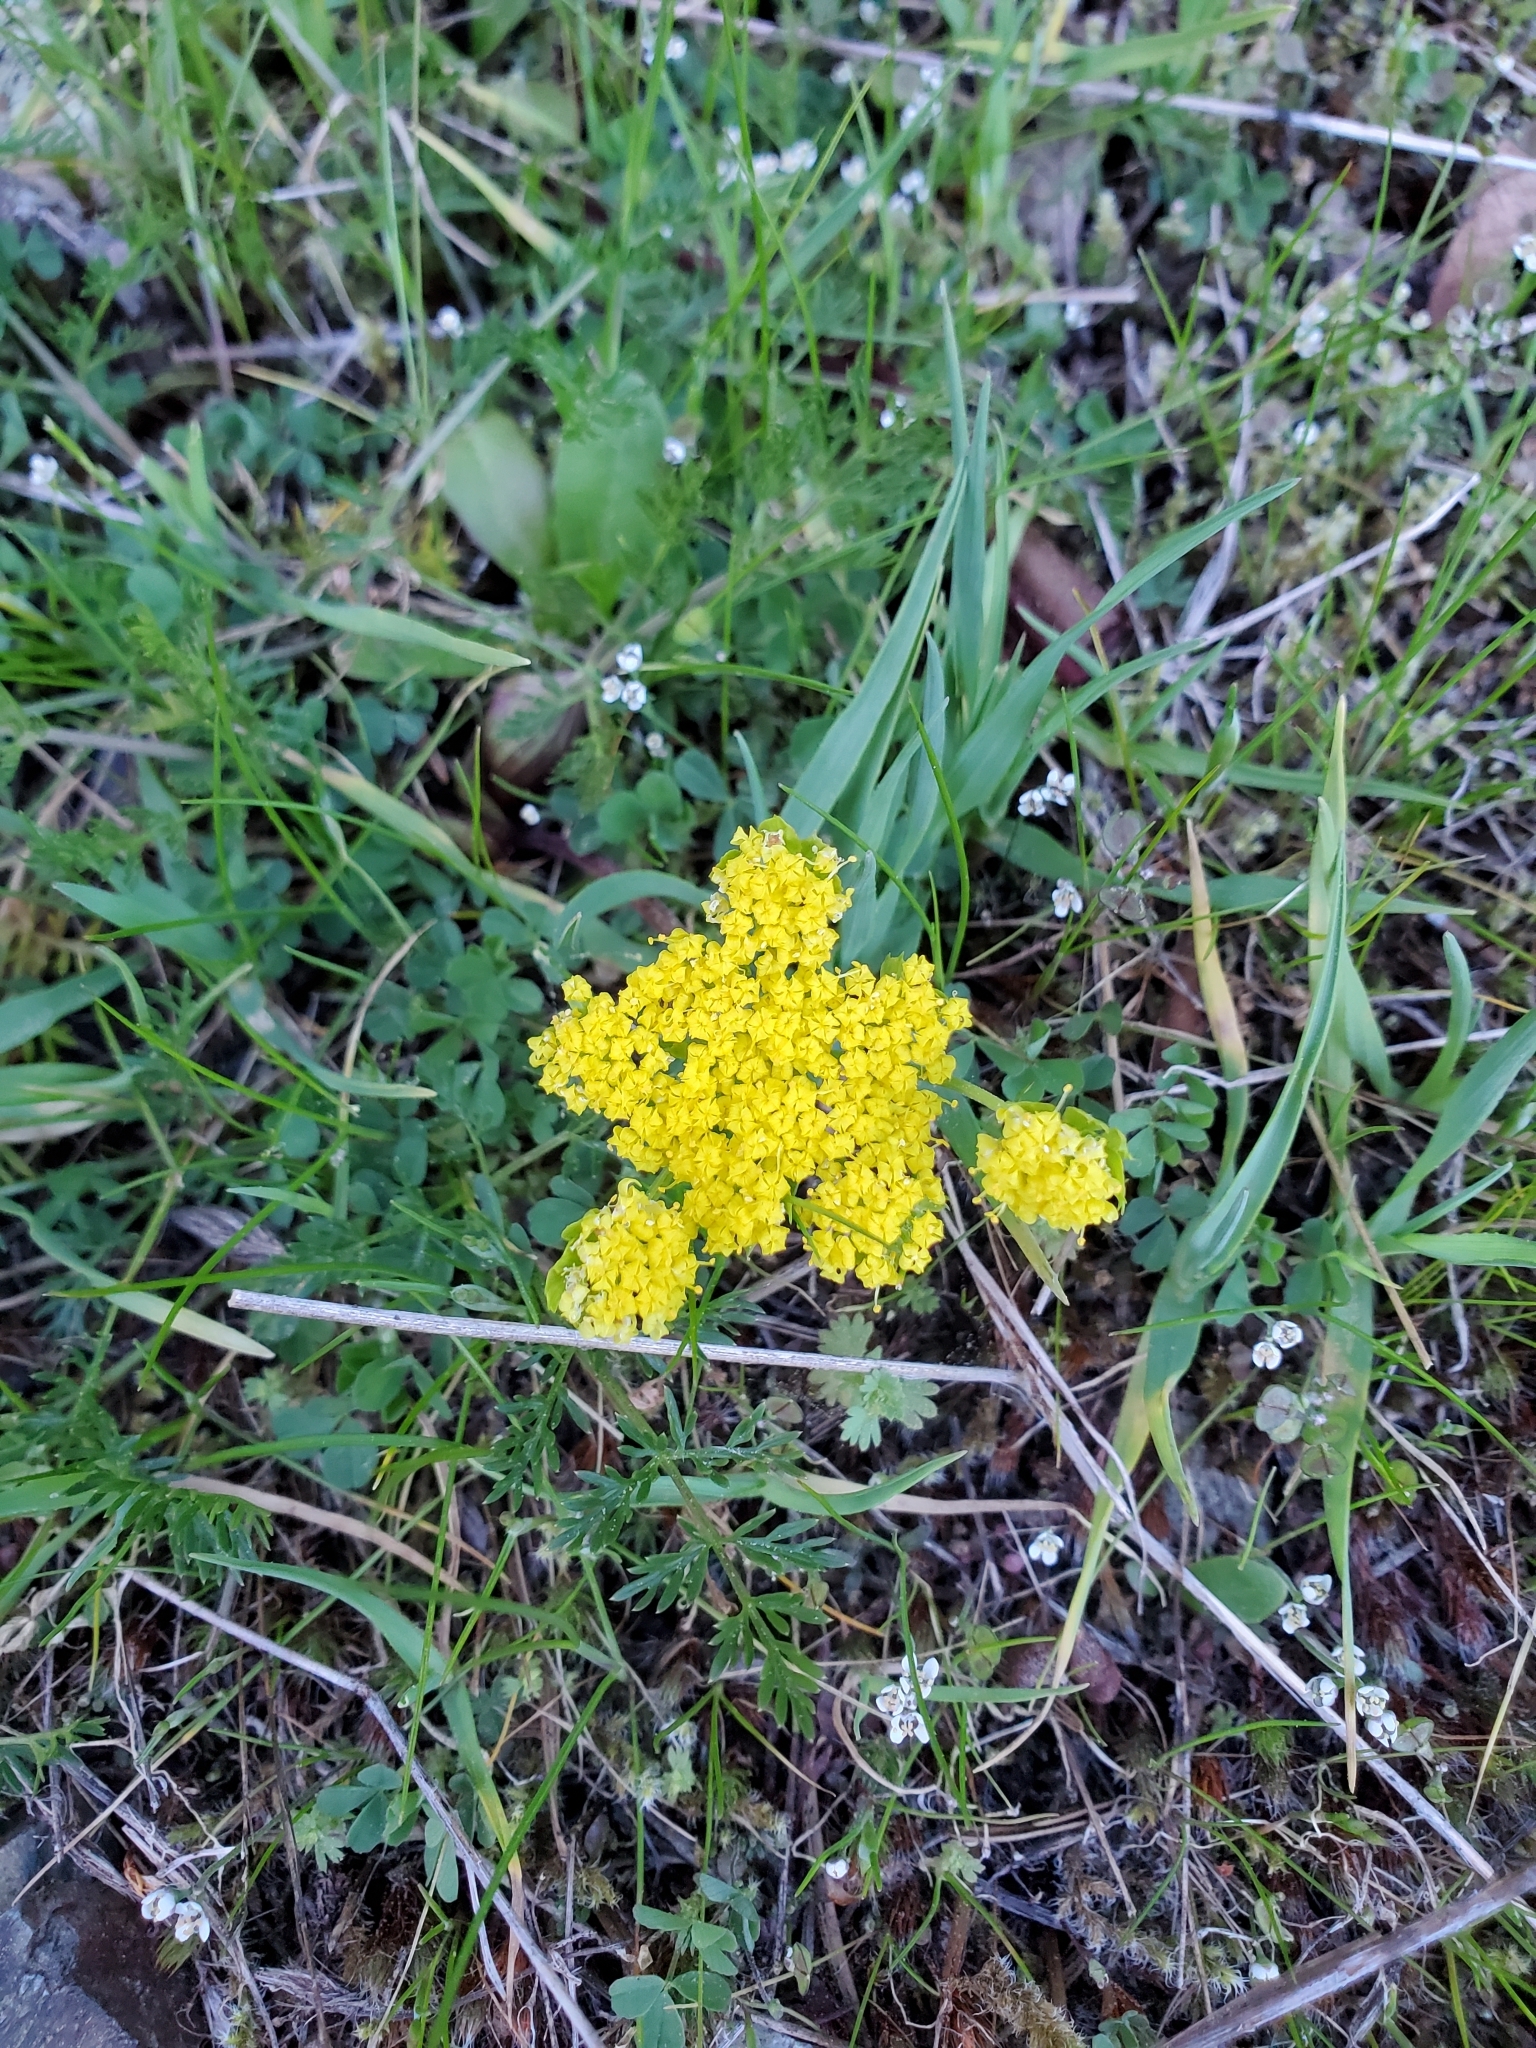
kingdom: Plantae
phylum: Tracheophyta
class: Magnoliopsida
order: Apiales
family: Apiaceae
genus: Lomatium
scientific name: Lomatium utriculatum
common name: Fine-leaf desert-parsley
